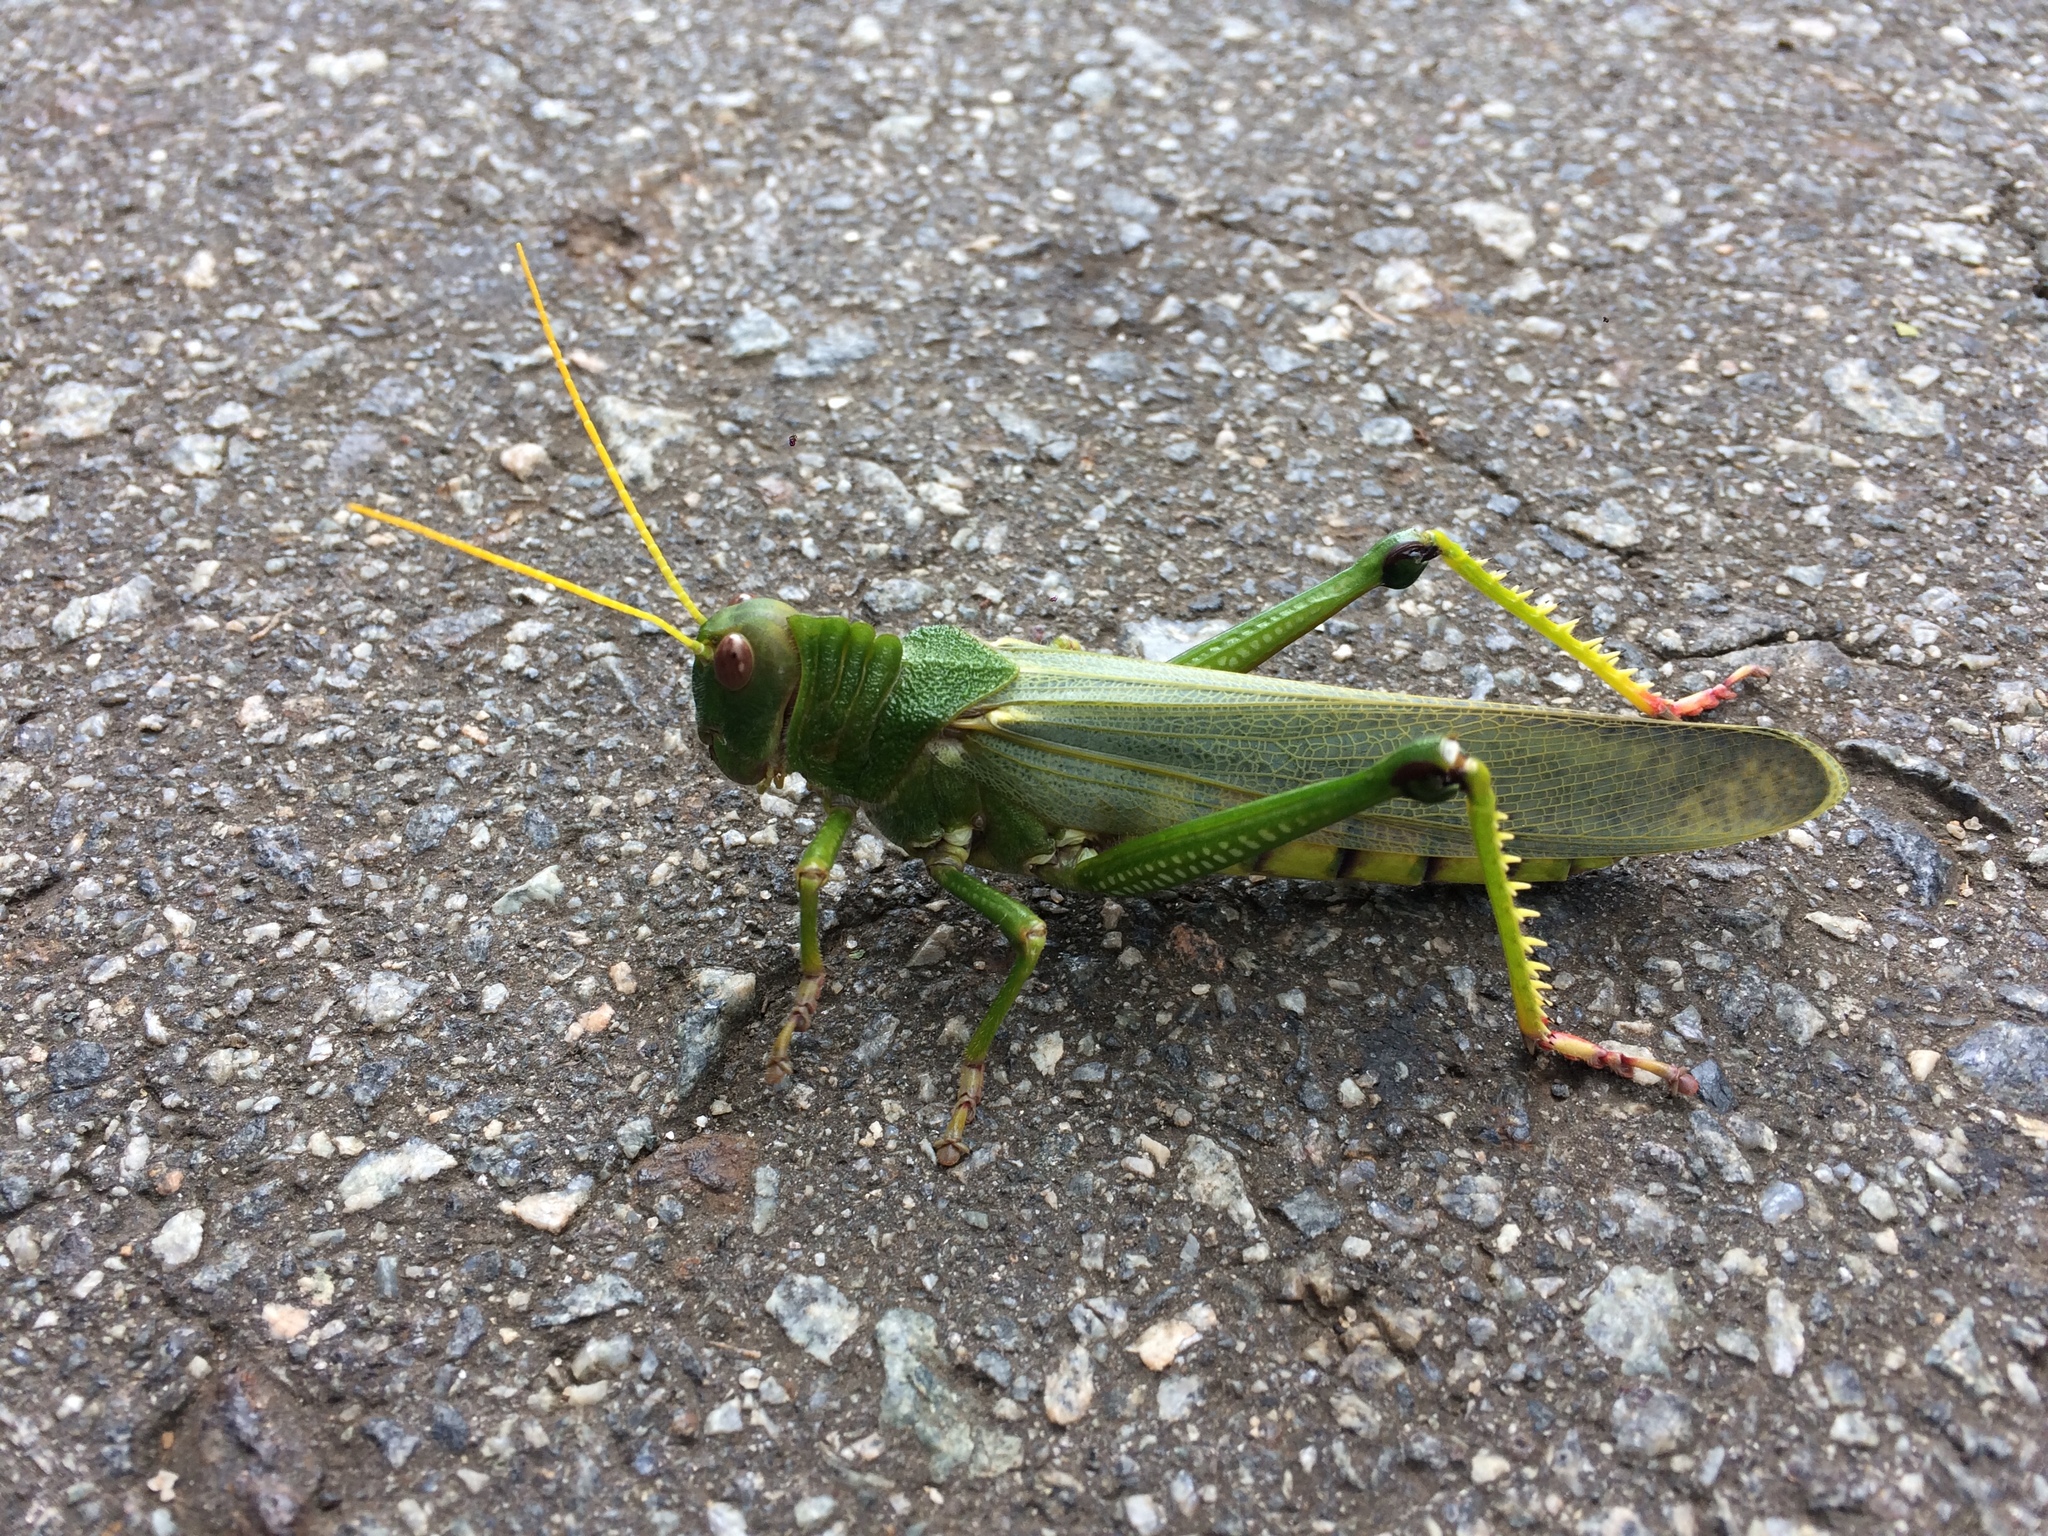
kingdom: Animalia
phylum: Arthropoda
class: Insecta
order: Orthoptera
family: Romaleidae
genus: Tropidacris
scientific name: Tropidacris collaris
